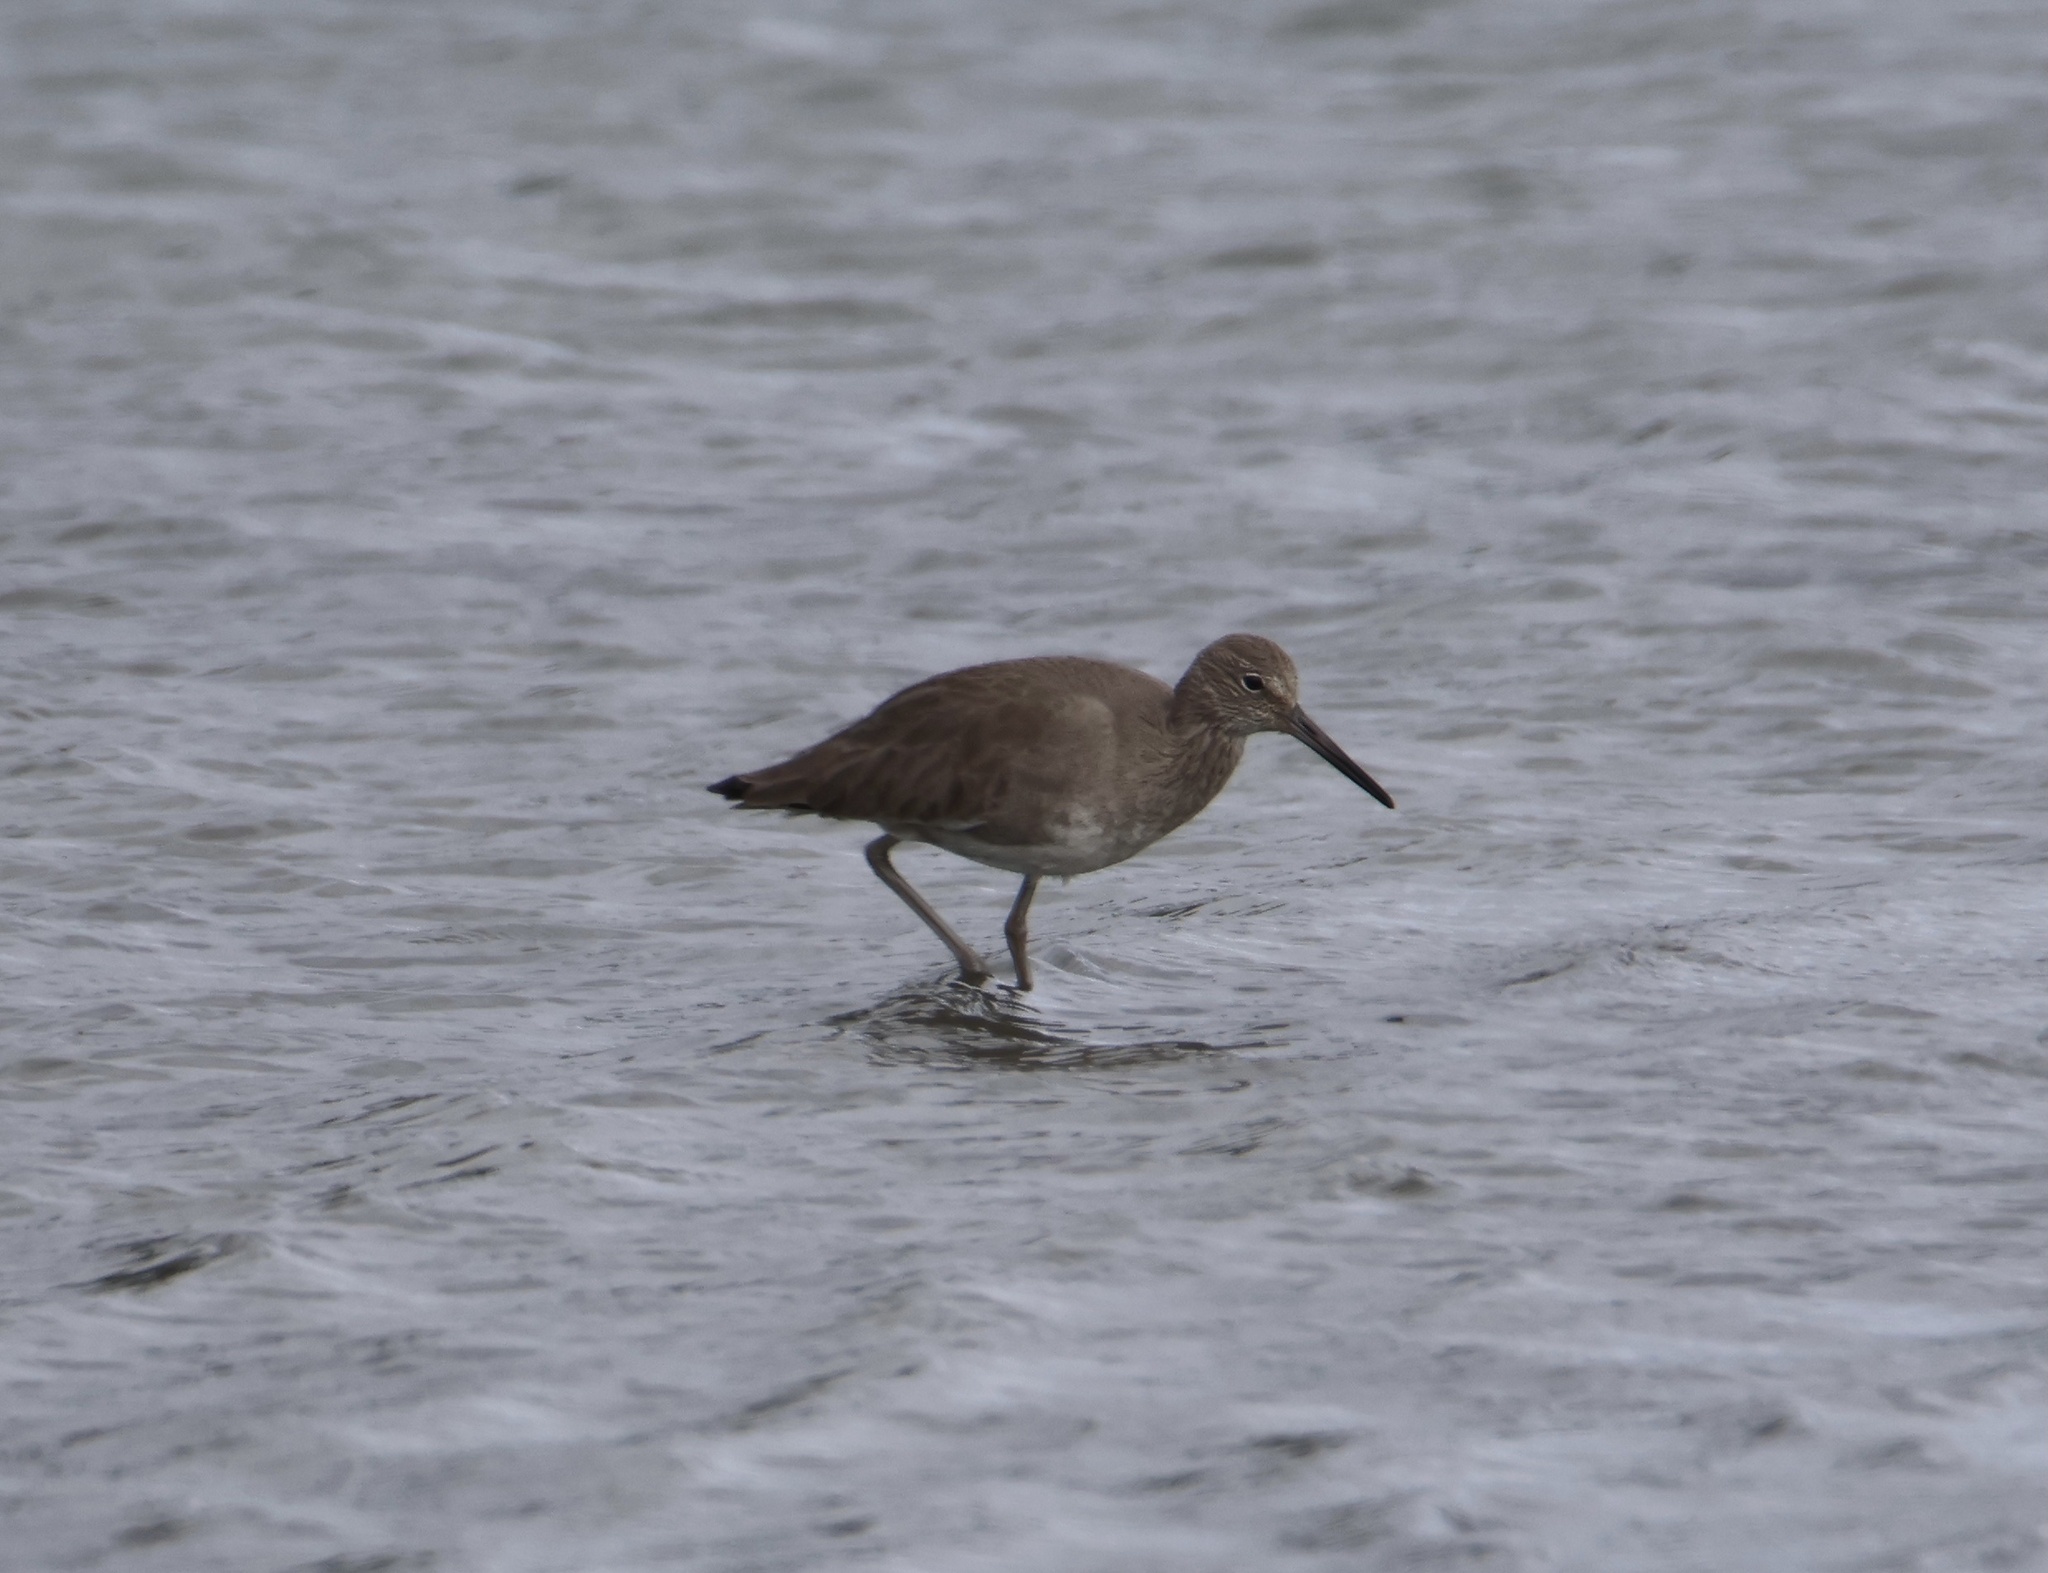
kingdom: Animalia
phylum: Chordata
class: Aves
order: Charadriiformes
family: Scolopacidae
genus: Tringa
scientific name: Tringa semipalmata
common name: Willet
